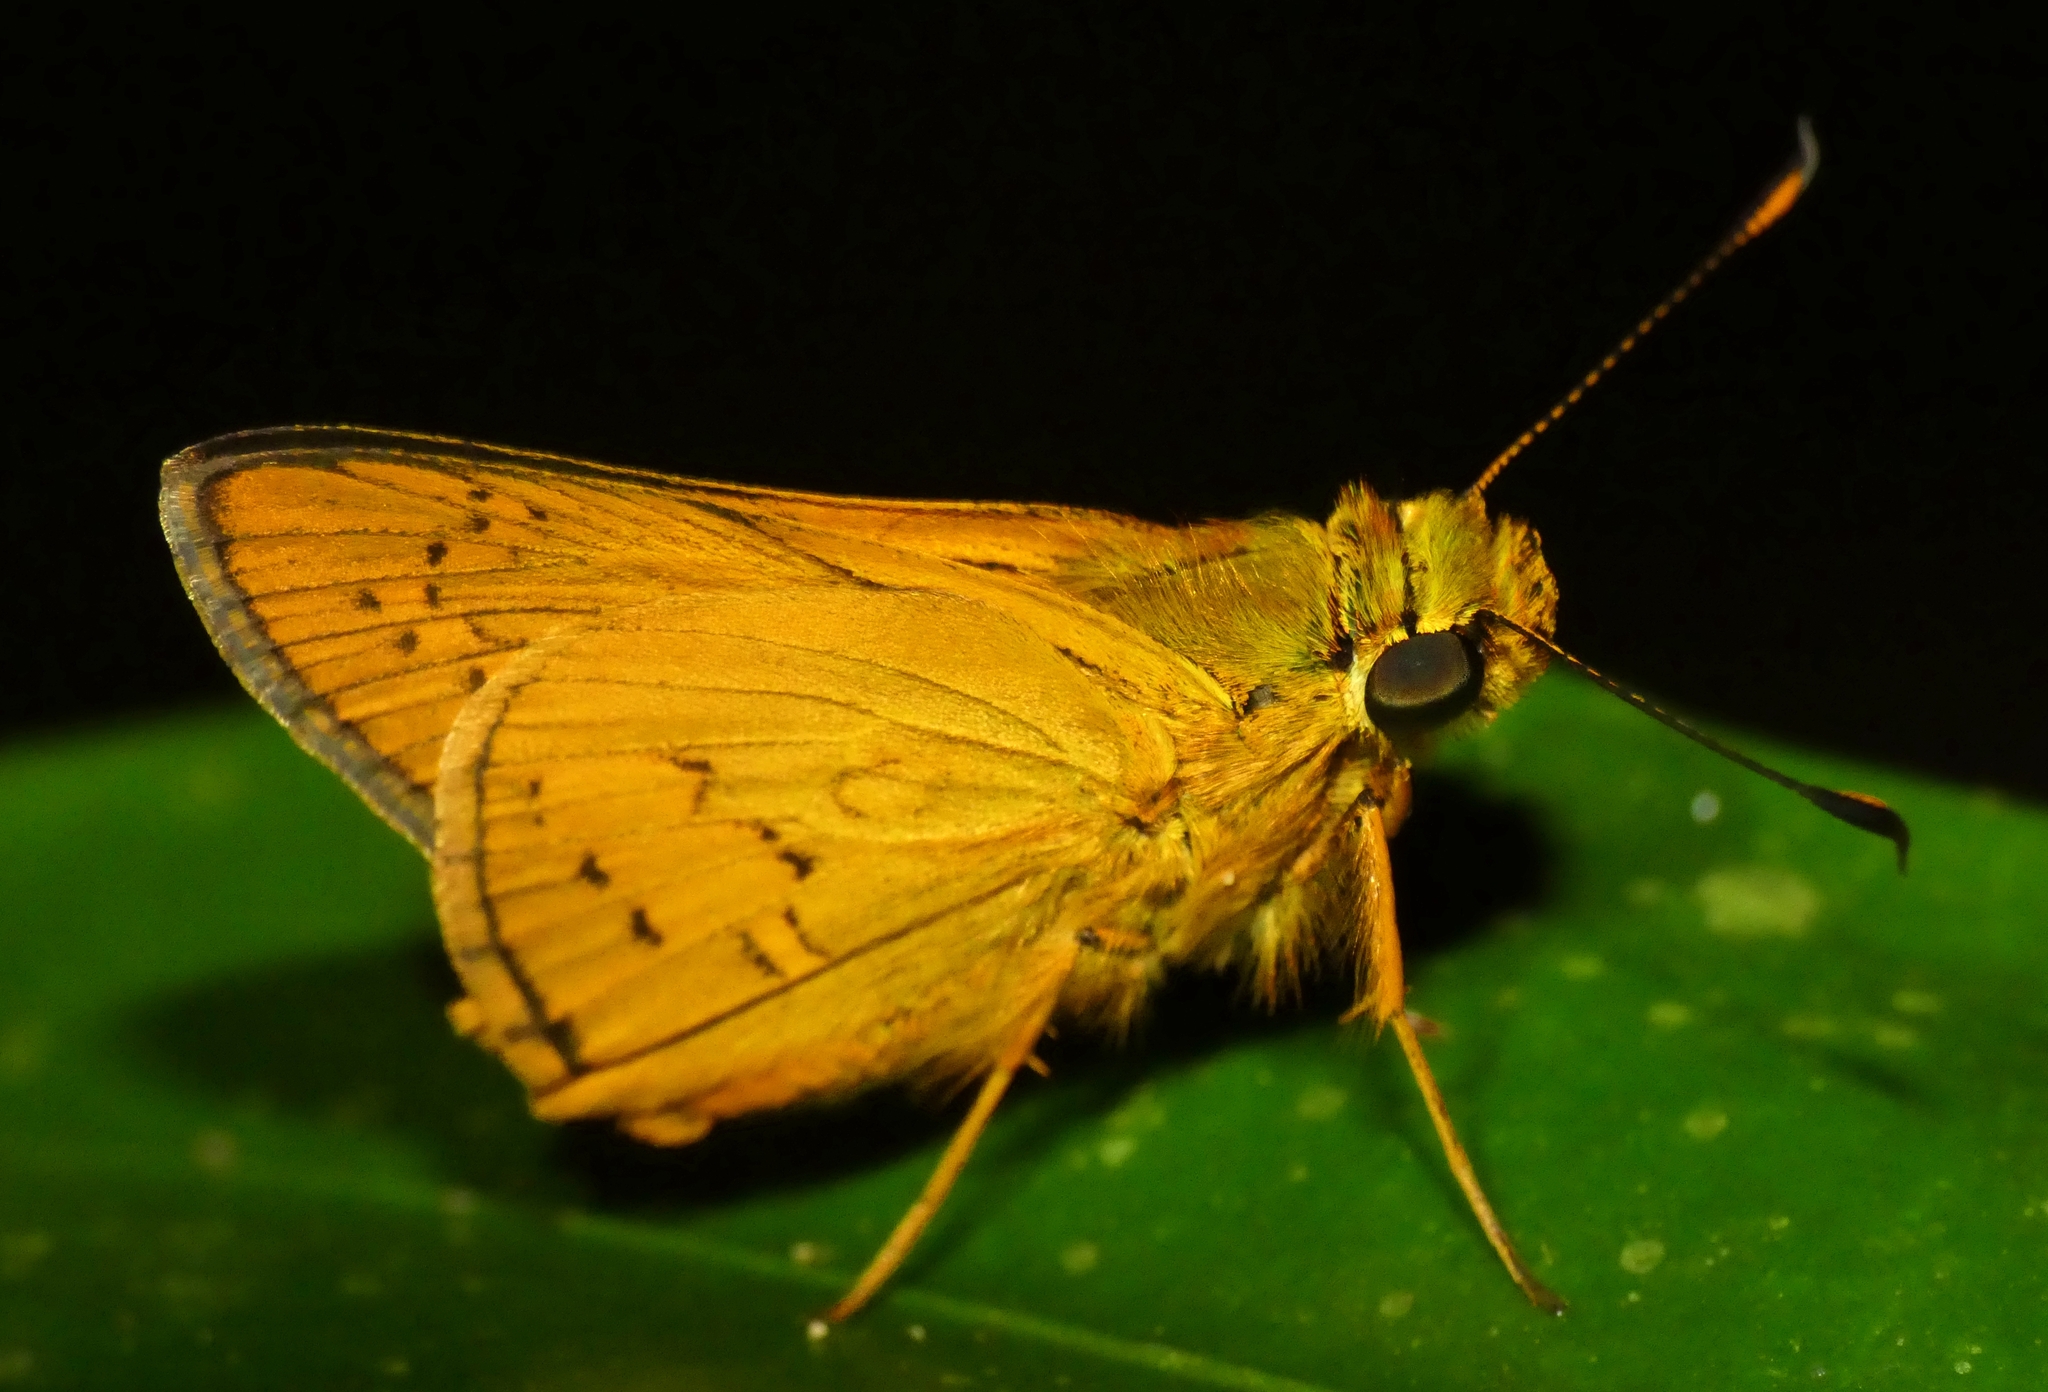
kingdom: Animalia
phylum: Arthropoda
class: Insecta
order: Lepidoptera
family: Hesperiidae
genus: Telicota
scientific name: Telicota paceka
